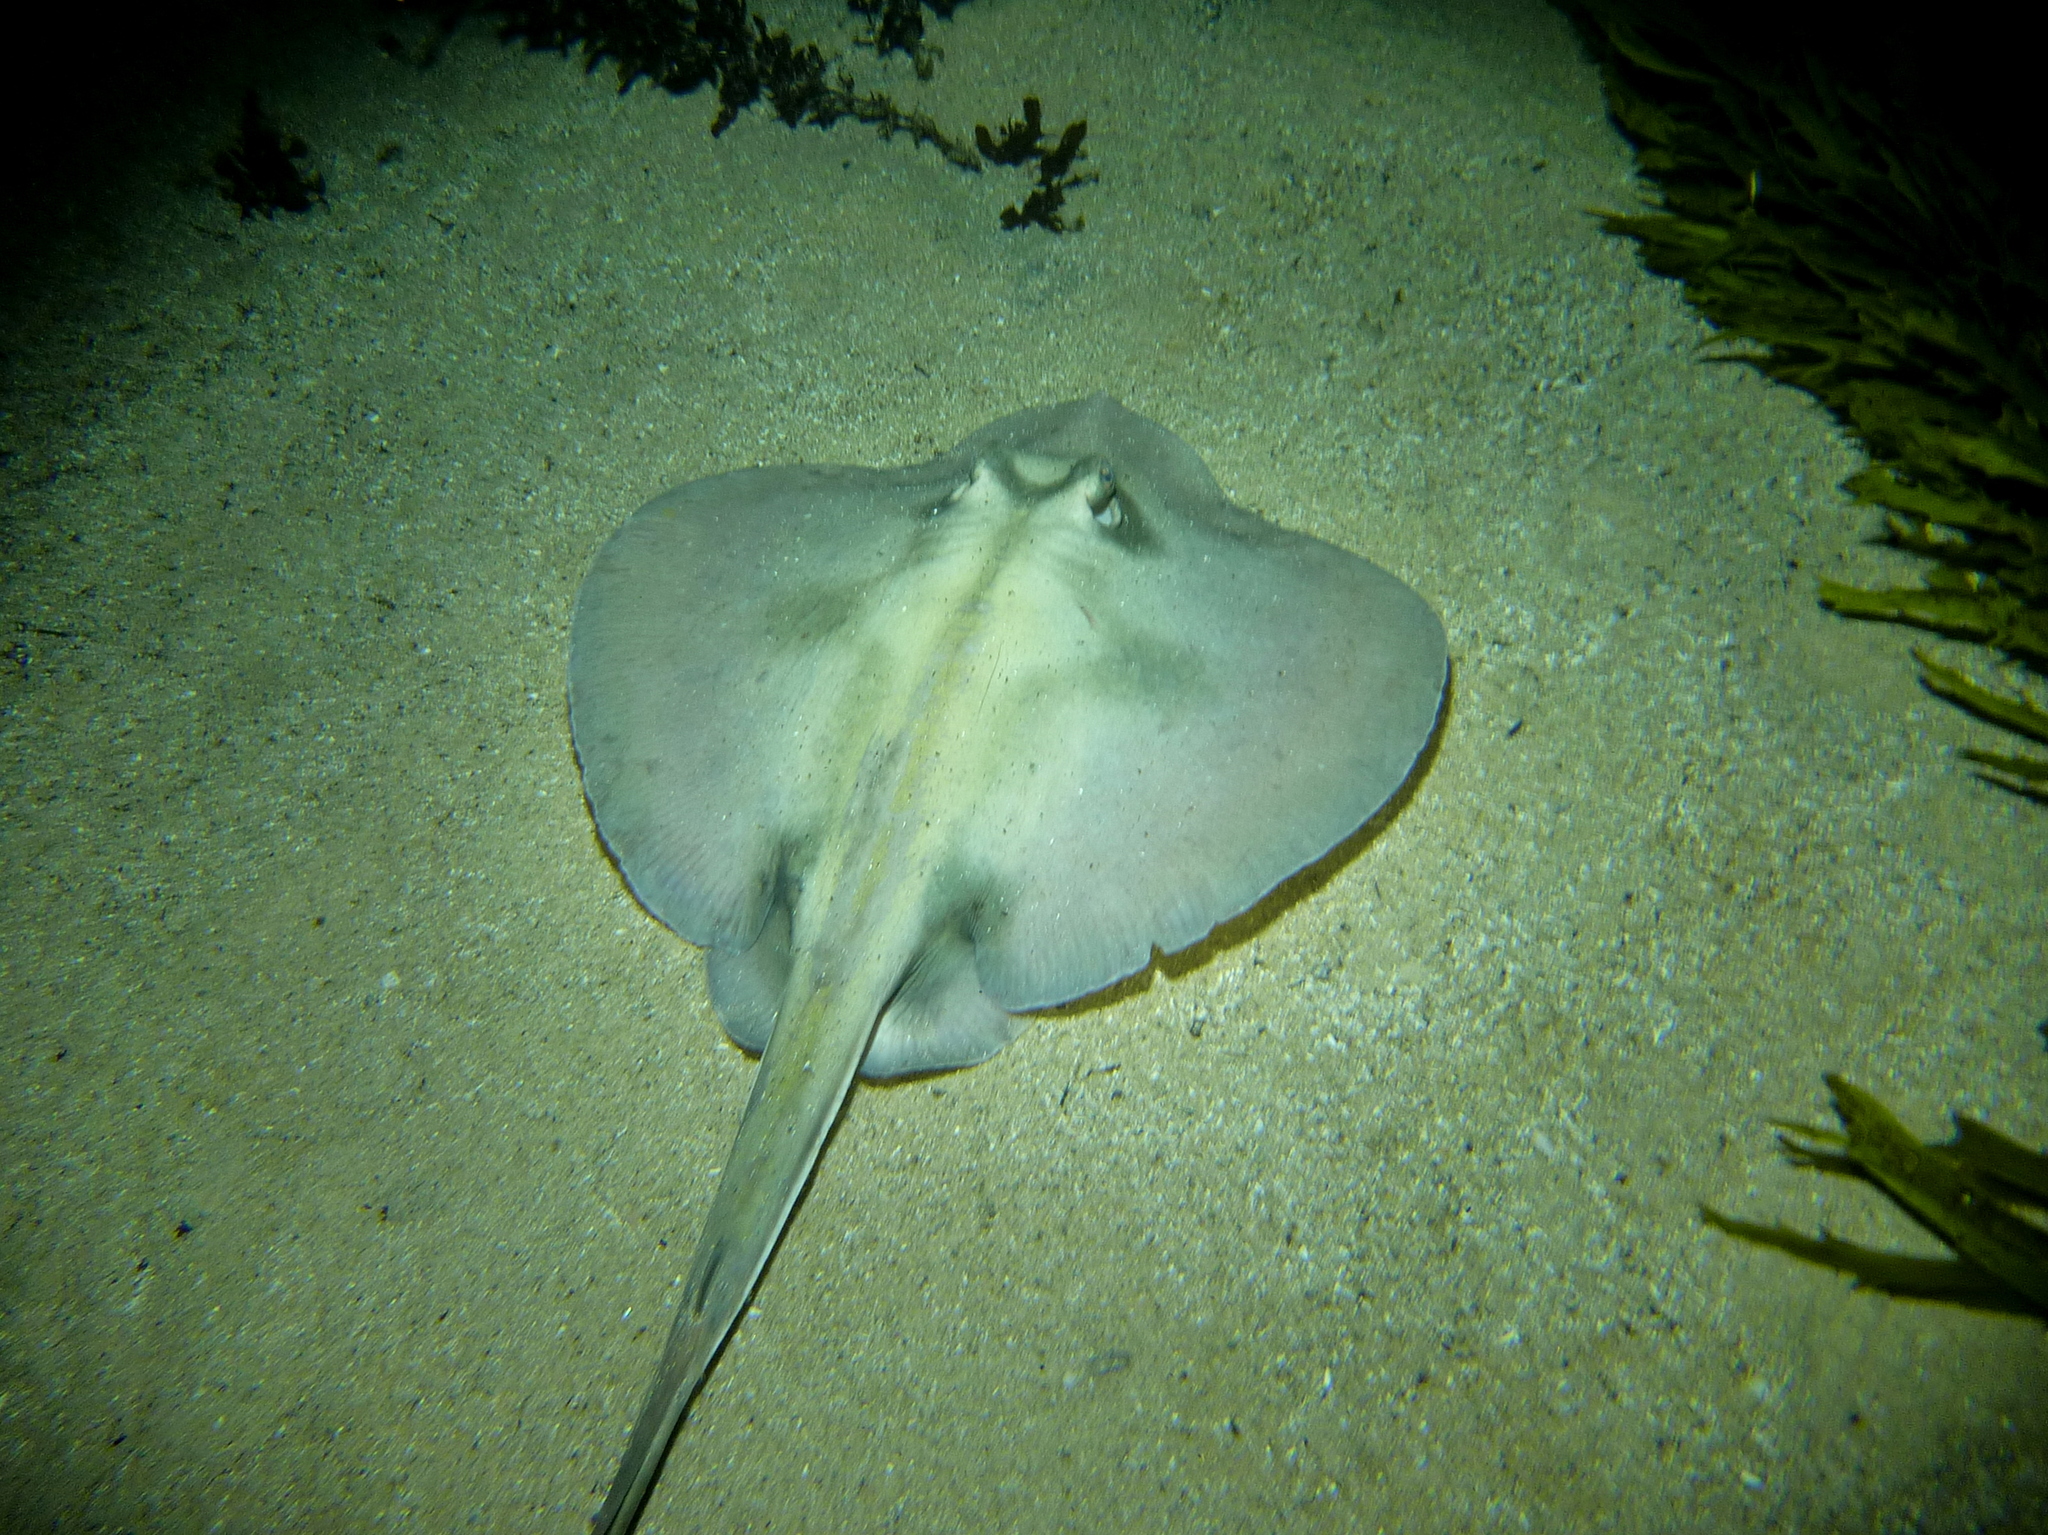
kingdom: Animalia
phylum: Chordata
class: Elasmobranchii
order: Myliobatiformes
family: Urolophidae
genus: Urolophus
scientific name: Urolophus kapalensis
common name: Kapala stingaree
